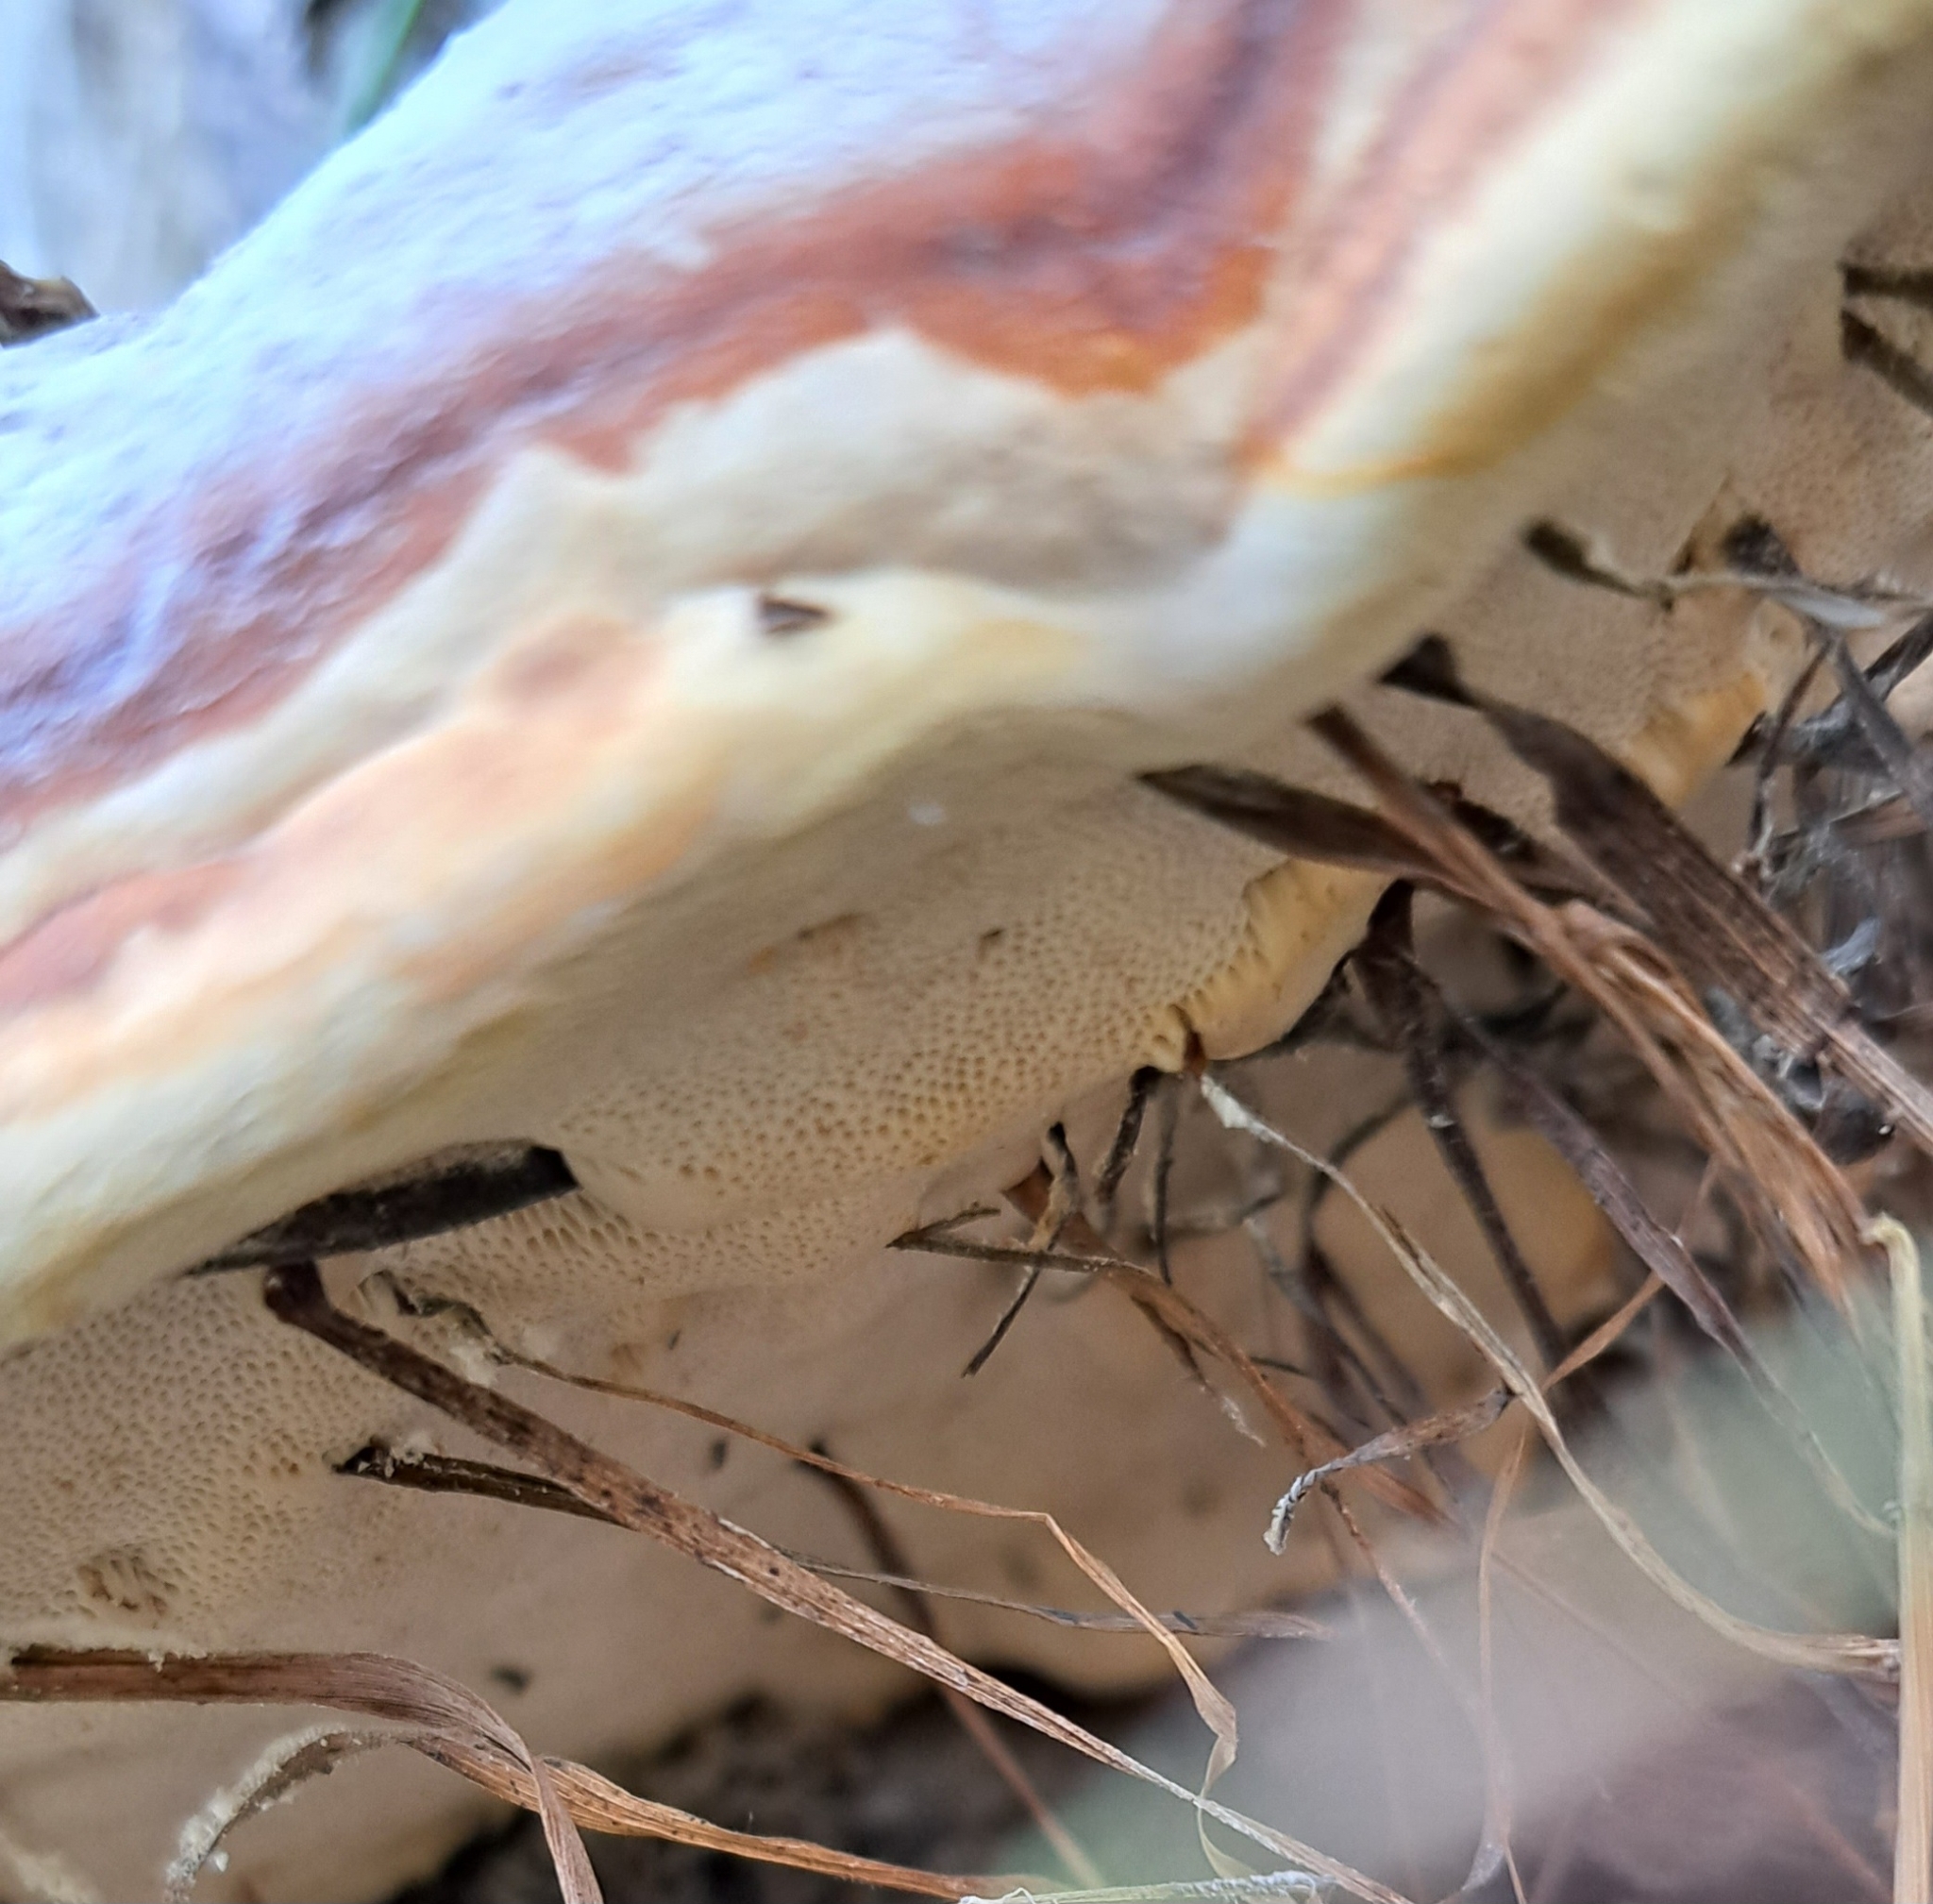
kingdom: Fungi
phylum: Basidiomycota
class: Agaricomycetes
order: Polyporales
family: Fomitopsidaceae
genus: Fomitopsis
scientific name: Fomitopsis pinicola
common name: Red-belted bracket
